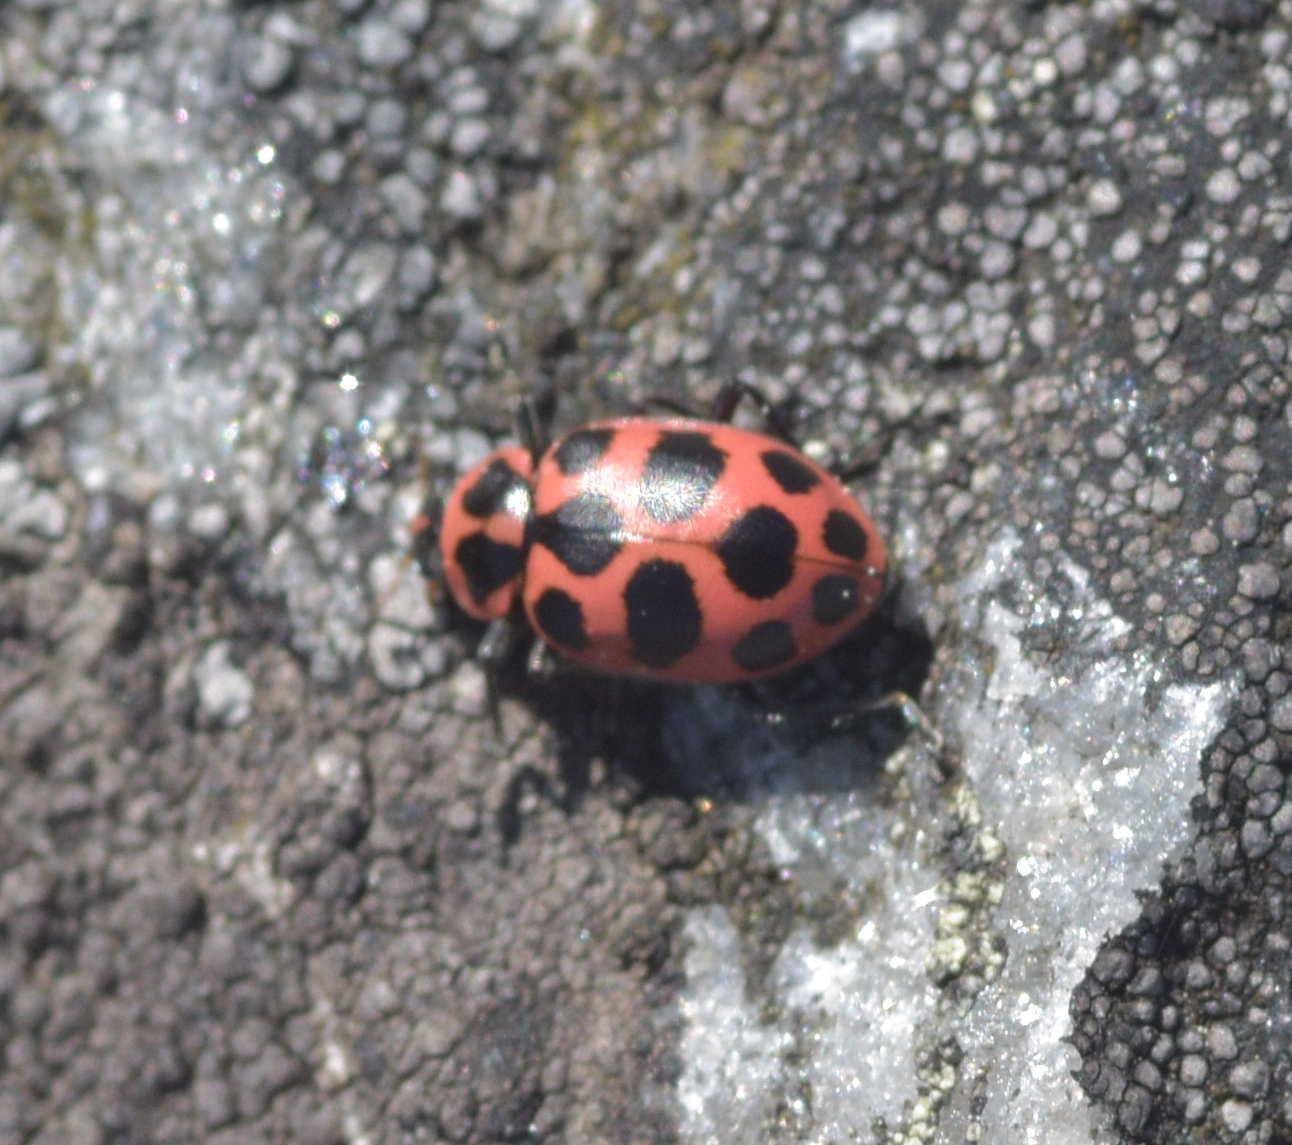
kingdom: Animalia
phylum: Arthropoda
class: Insecta
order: Coleoptera
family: Coccinellidae
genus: Coleomegilla
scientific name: Coleomegilla maculata
